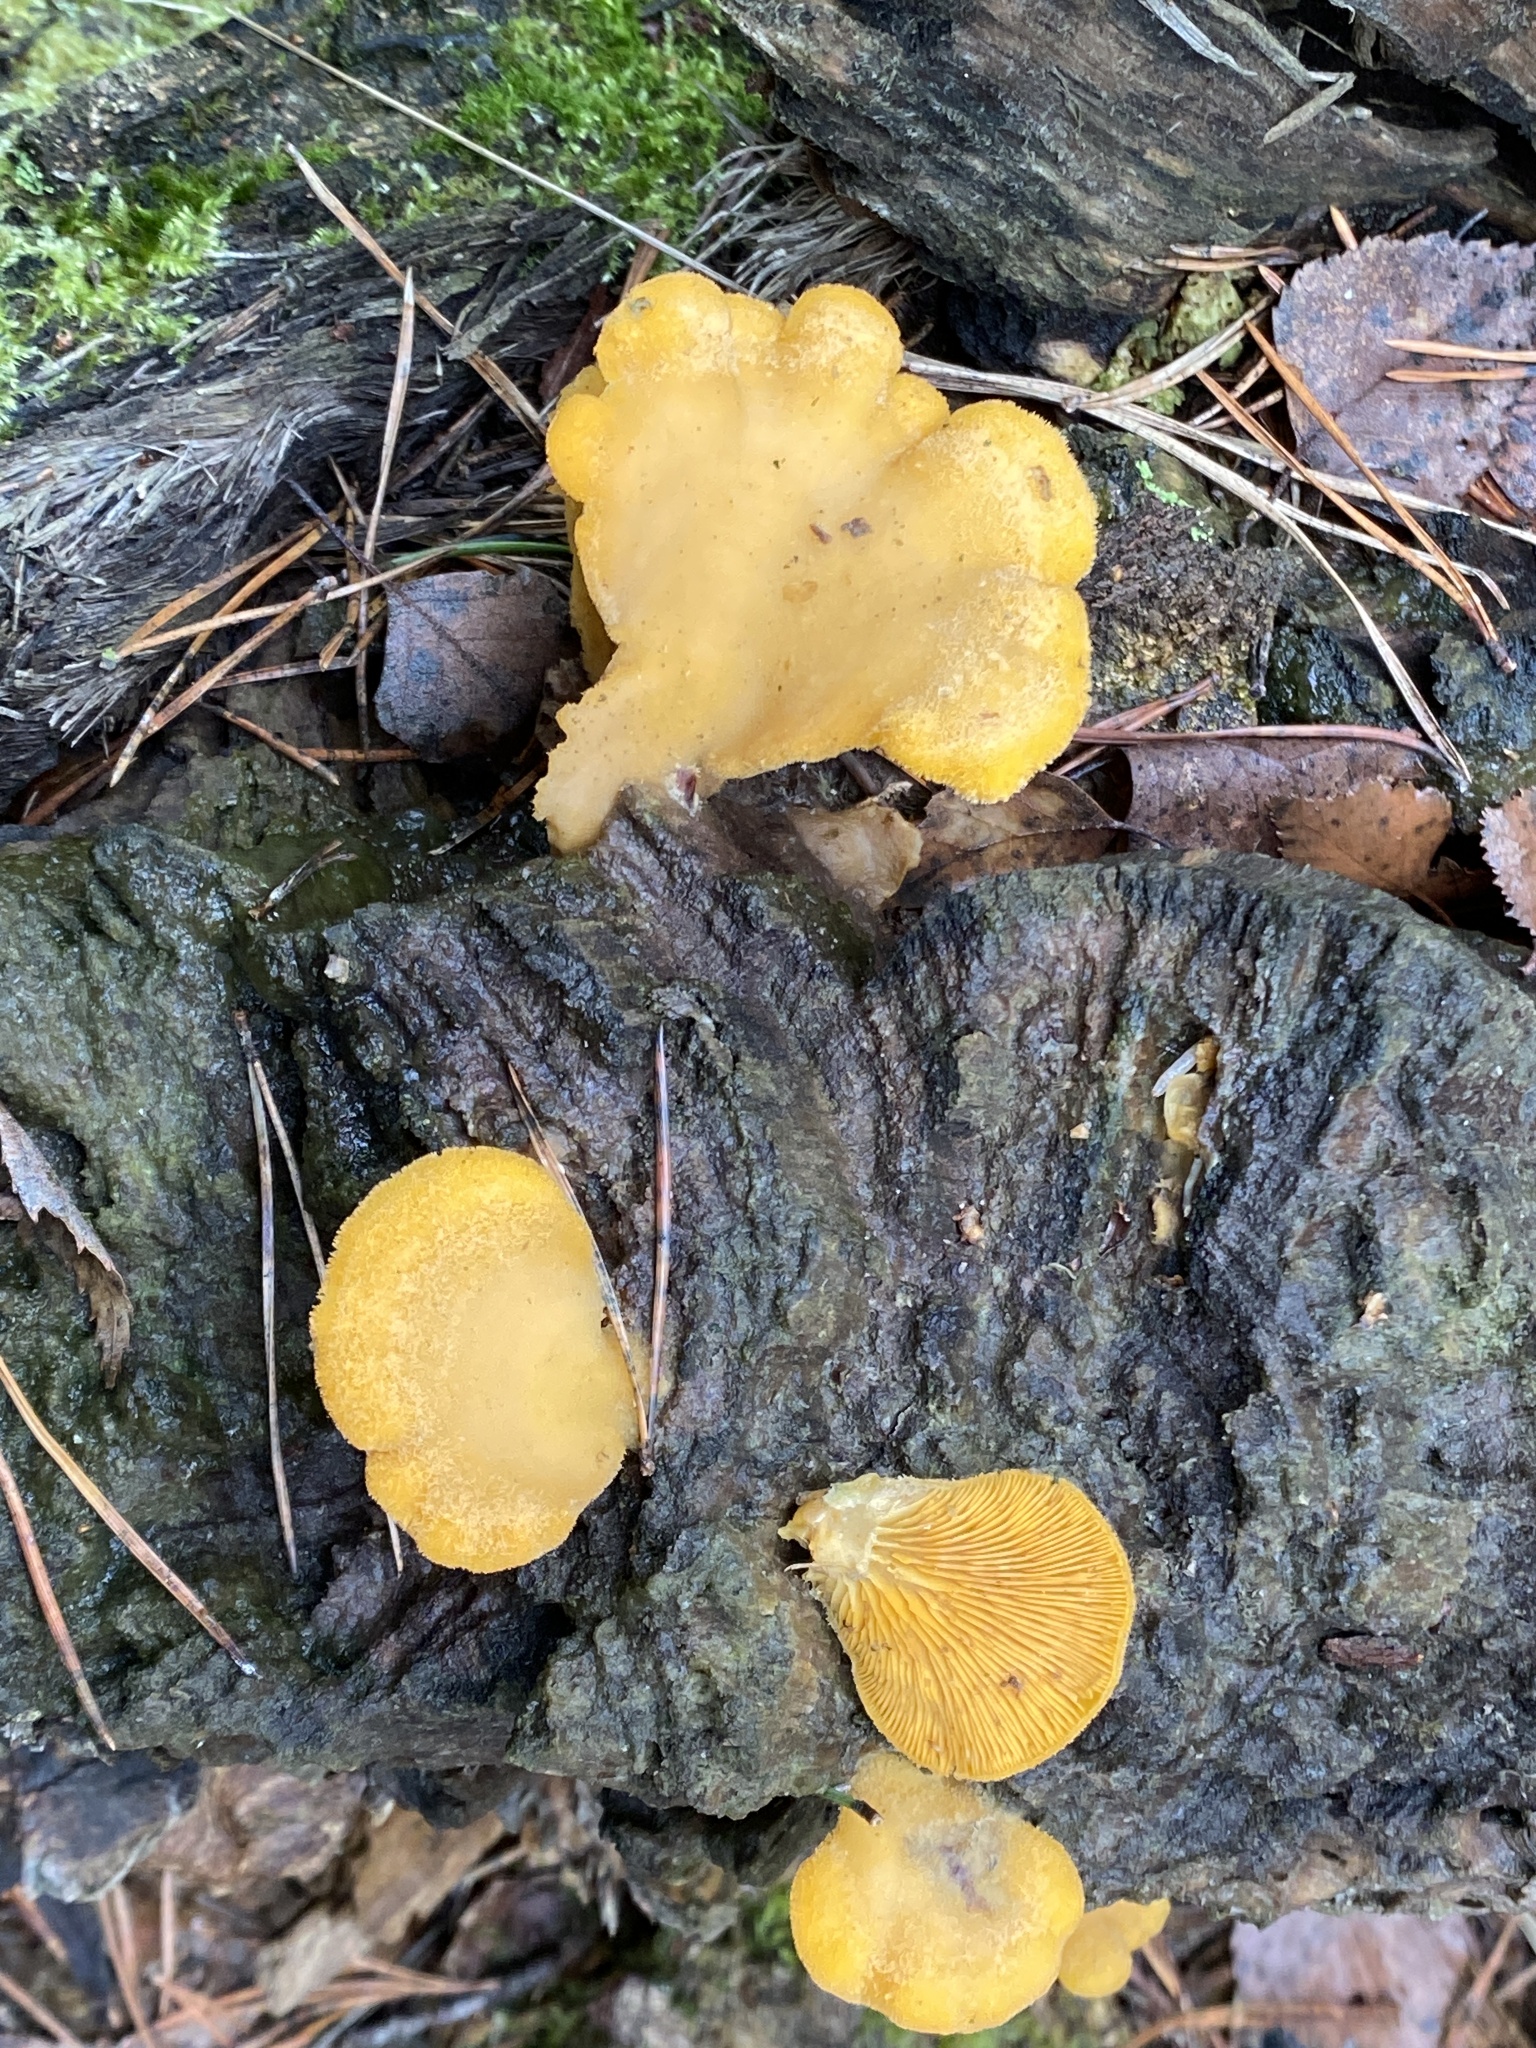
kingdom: Fungi
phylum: Basidiomycota
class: Agaricomycetes
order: Agaricales
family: Phyllotopsidaceae
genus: Phyllotopsis
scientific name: Phyllotopsis nidulans
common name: Orange mock oyster
